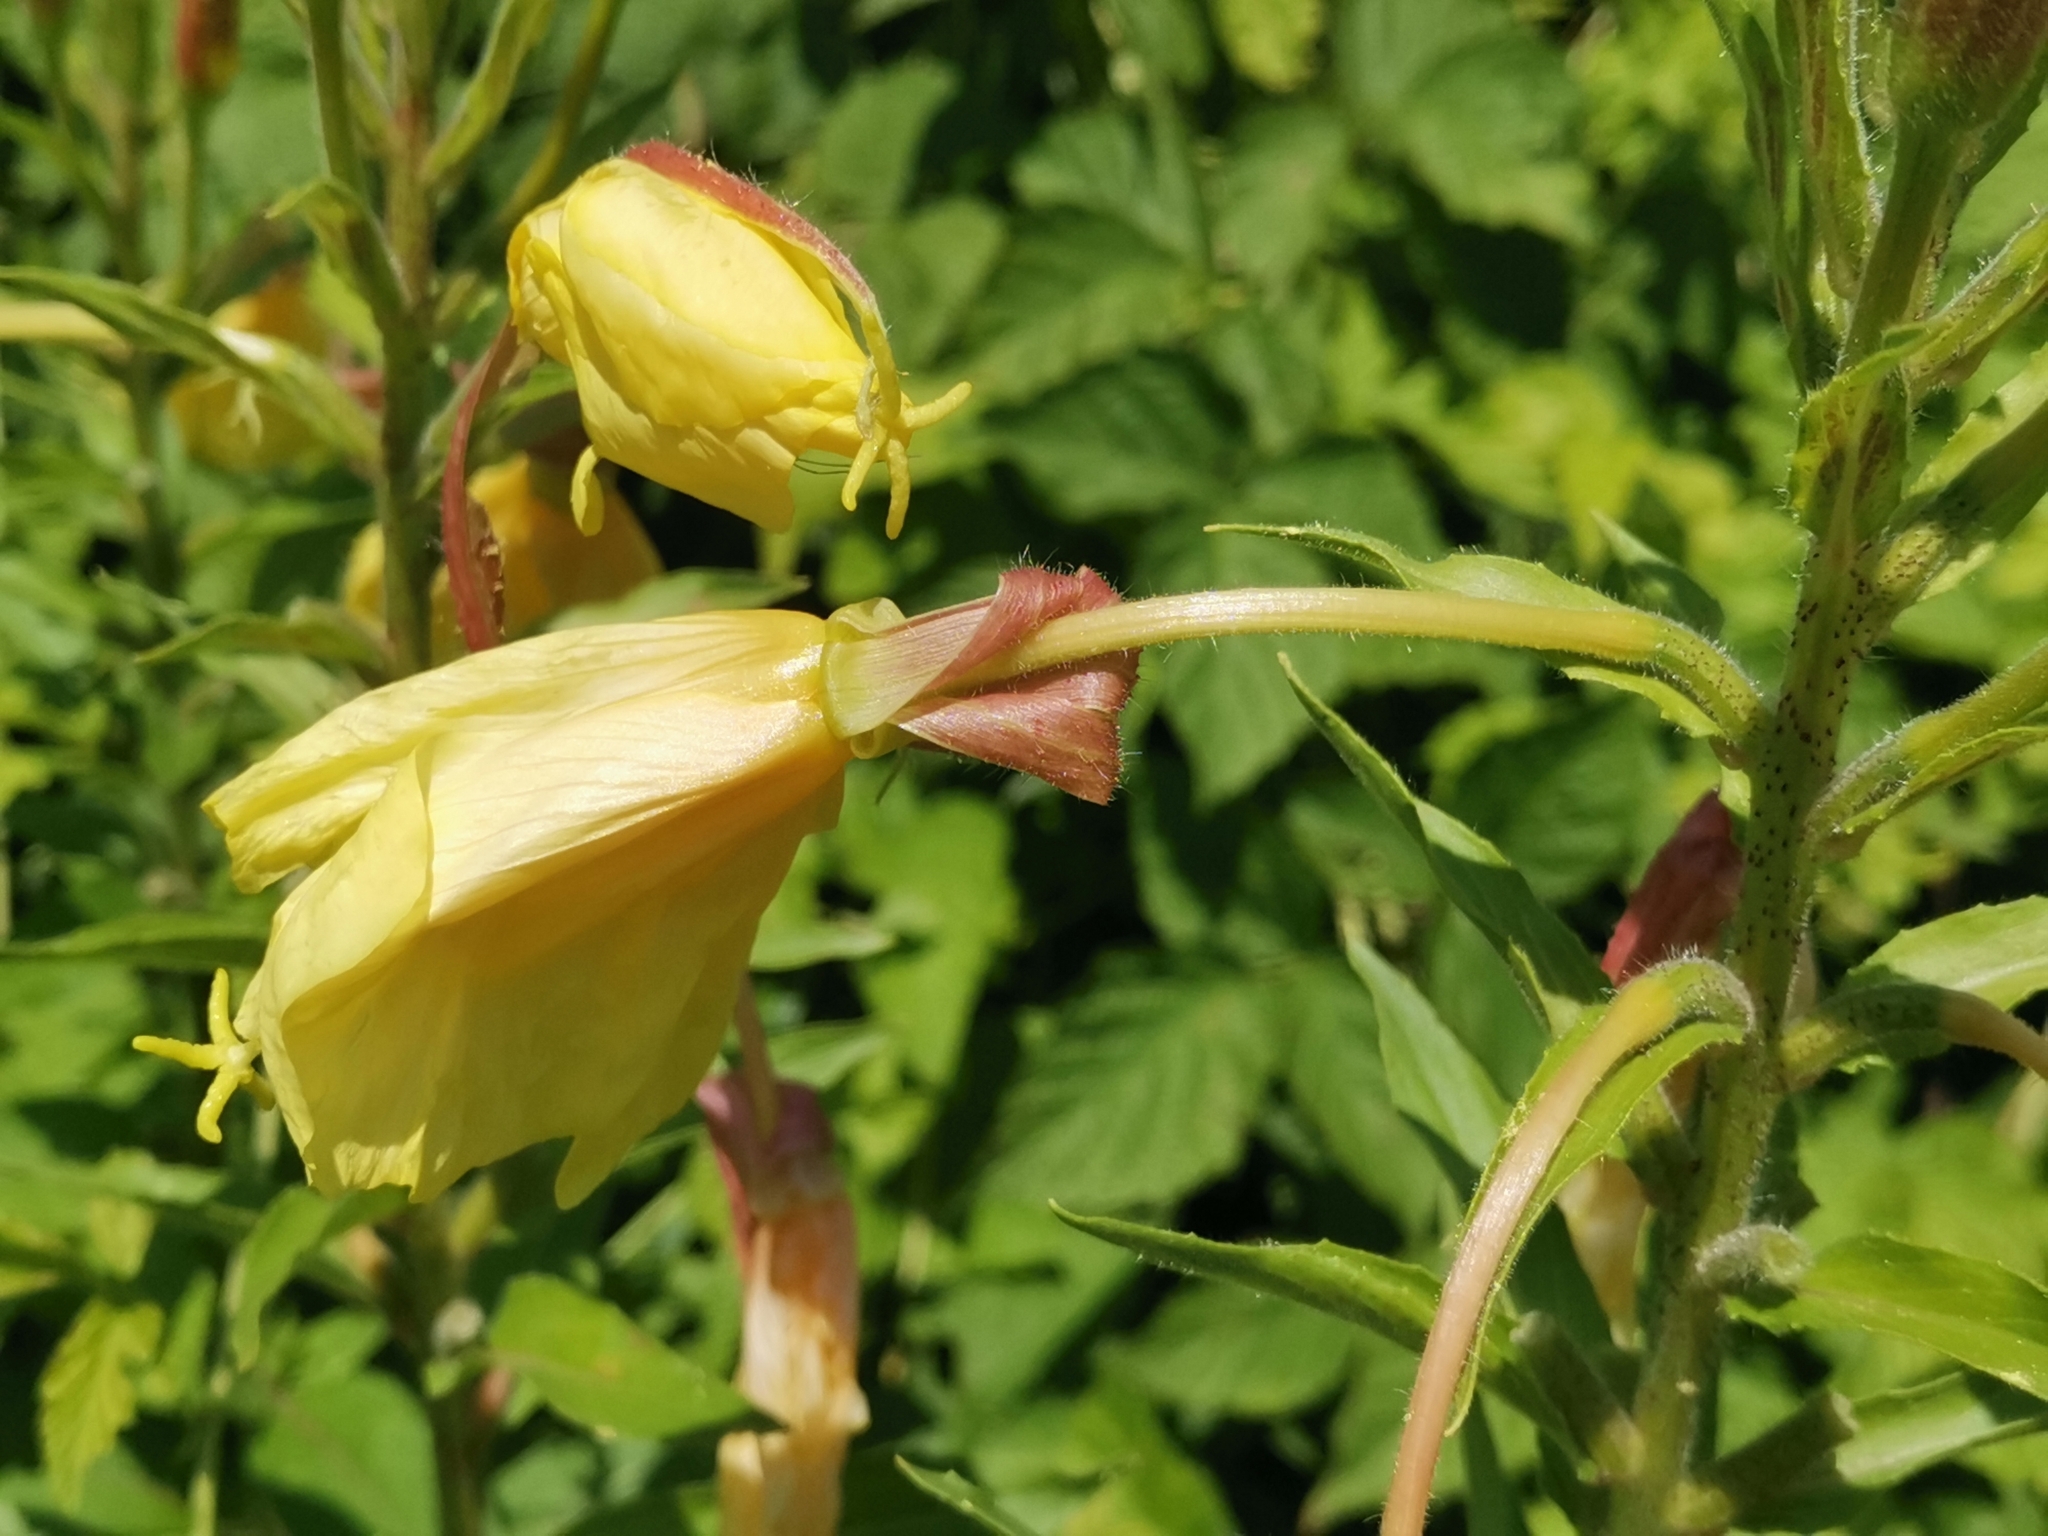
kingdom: Plantae
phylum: Tracheophyta
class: Magnoliopsida
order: Myrtales
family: Onagraceae
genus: Oenothera
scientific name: Oenothera glazioviana
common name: Large-flowered evening-primrose
